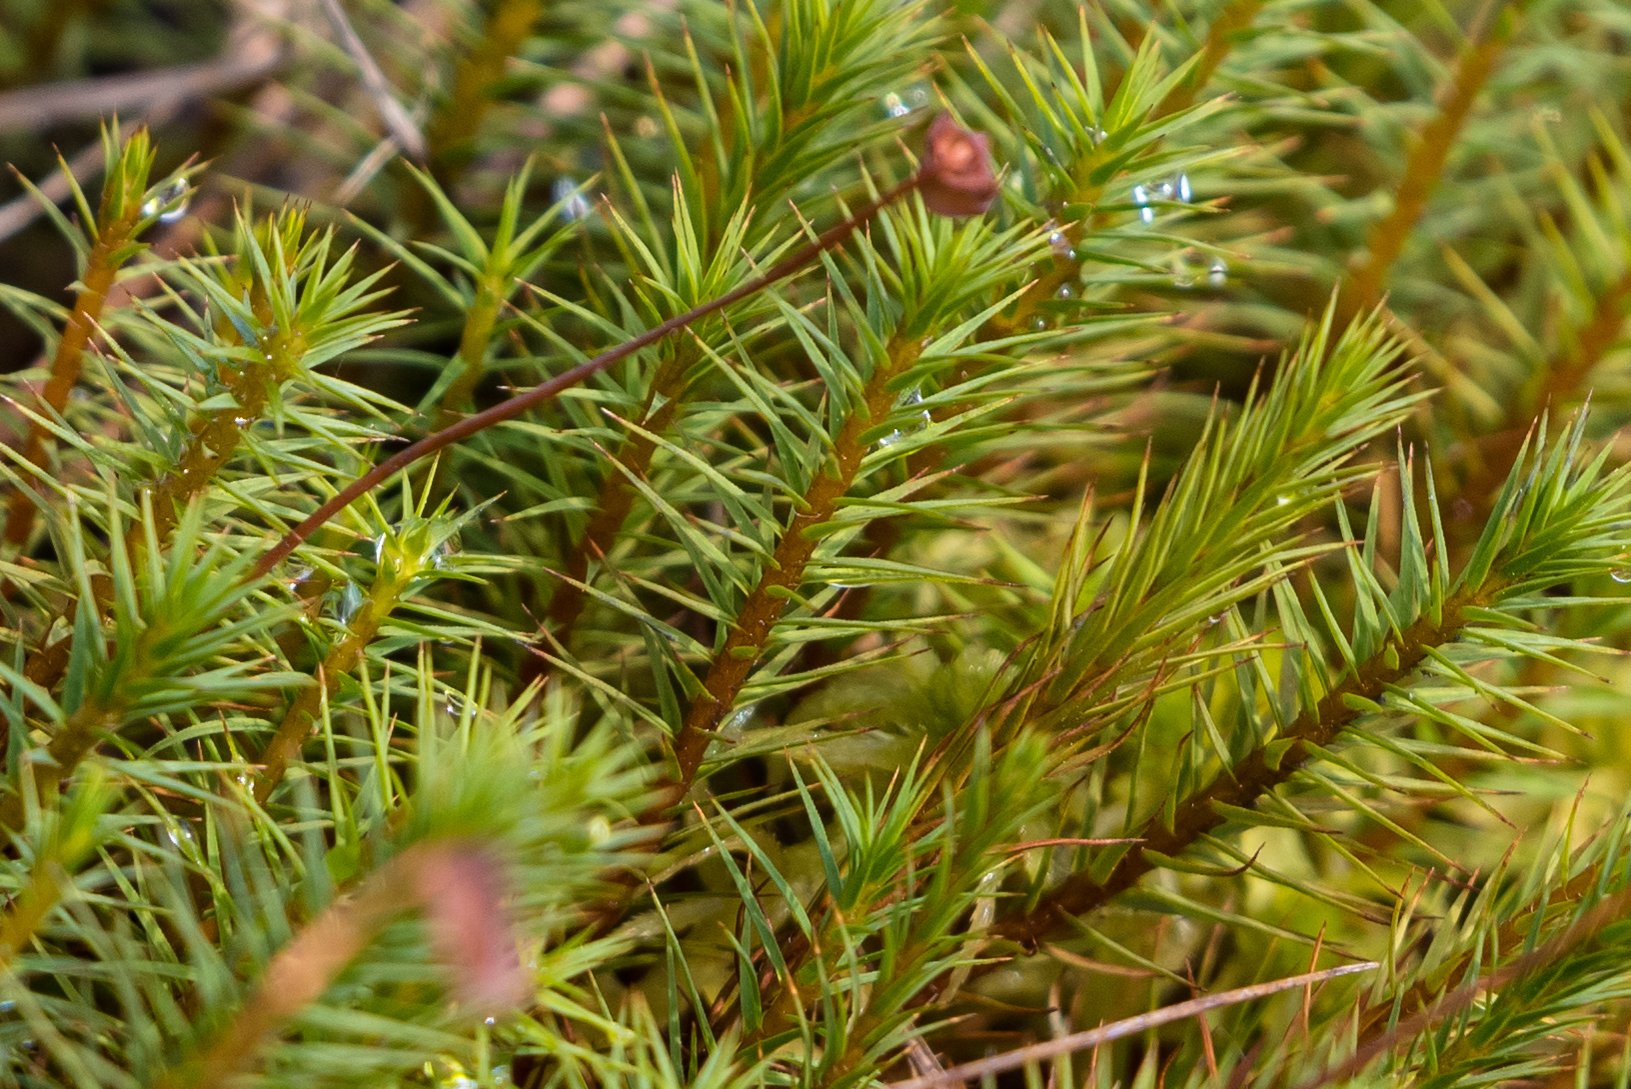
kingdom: Plantae
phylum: Bryophyta
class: Polytrichopsida
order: Polytrichales
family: Polytrichaceae
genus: Polytrichum
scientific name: Polytrichum strictum
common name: Bog haircap moss
